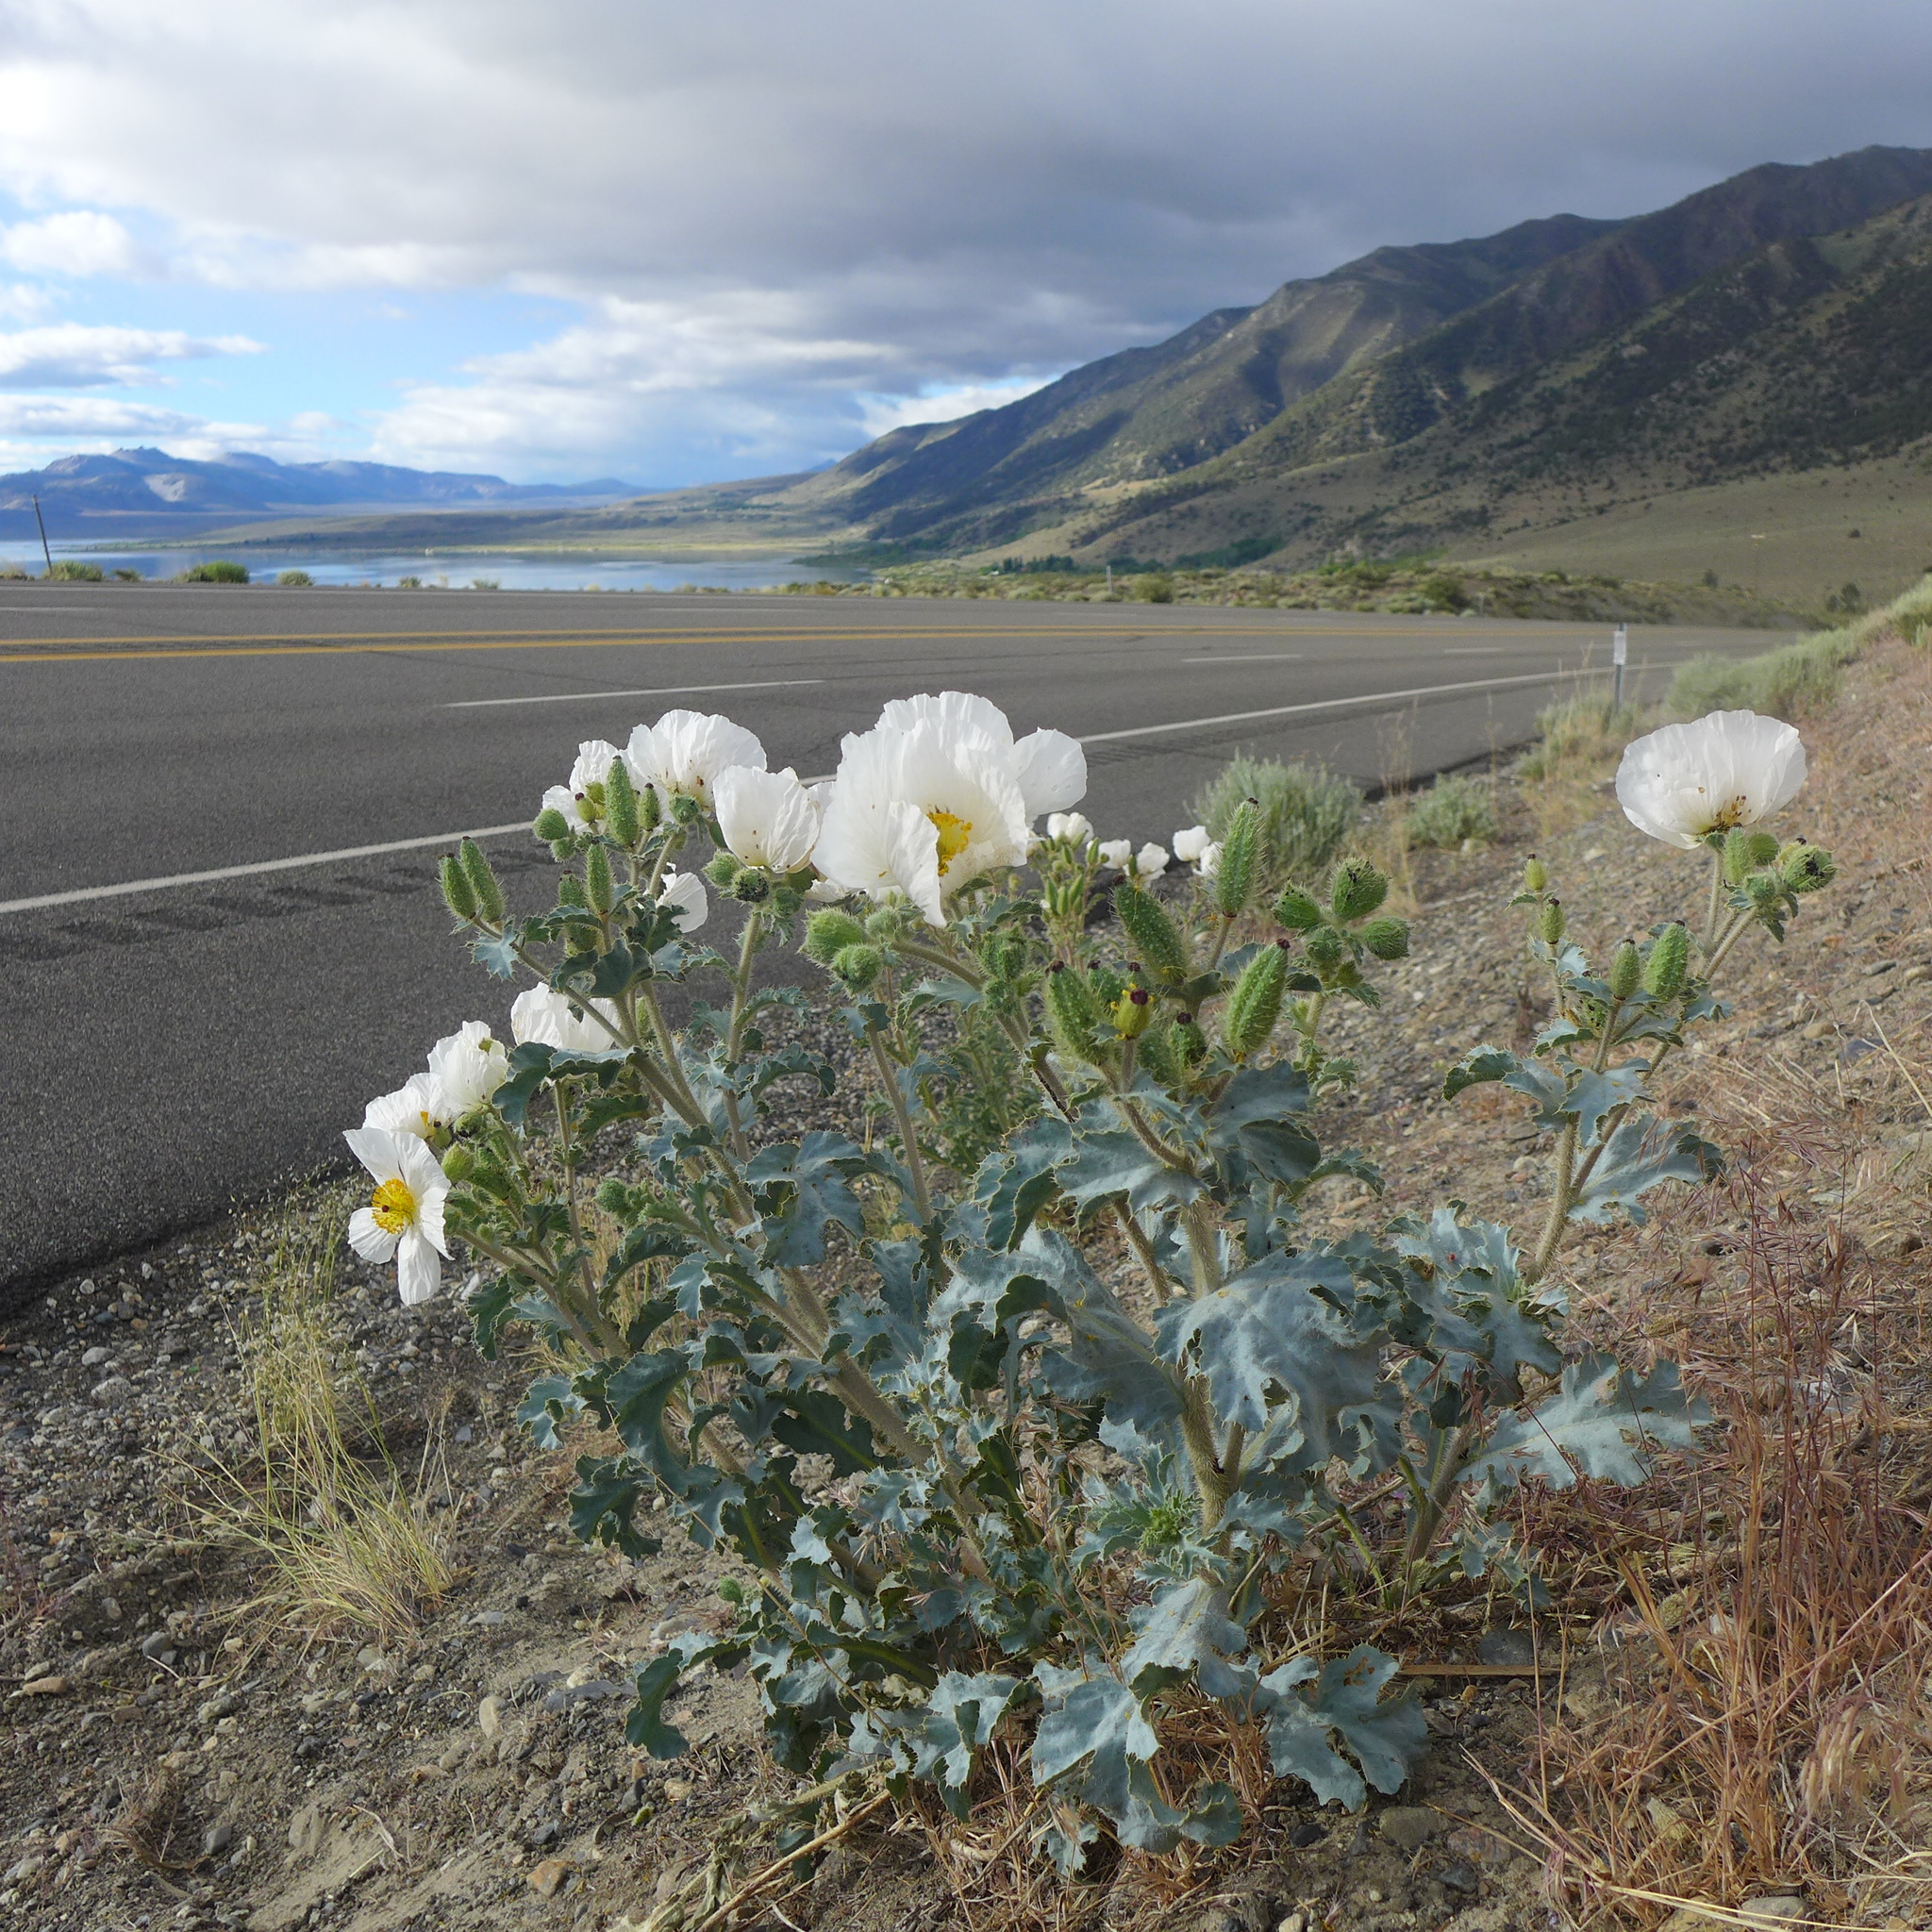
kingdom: Plantae
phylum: Tracheophyta
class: Magnoliopsida
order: Ranunculales
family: Papaveraceae
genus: Argemone
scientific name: Argemone munita
